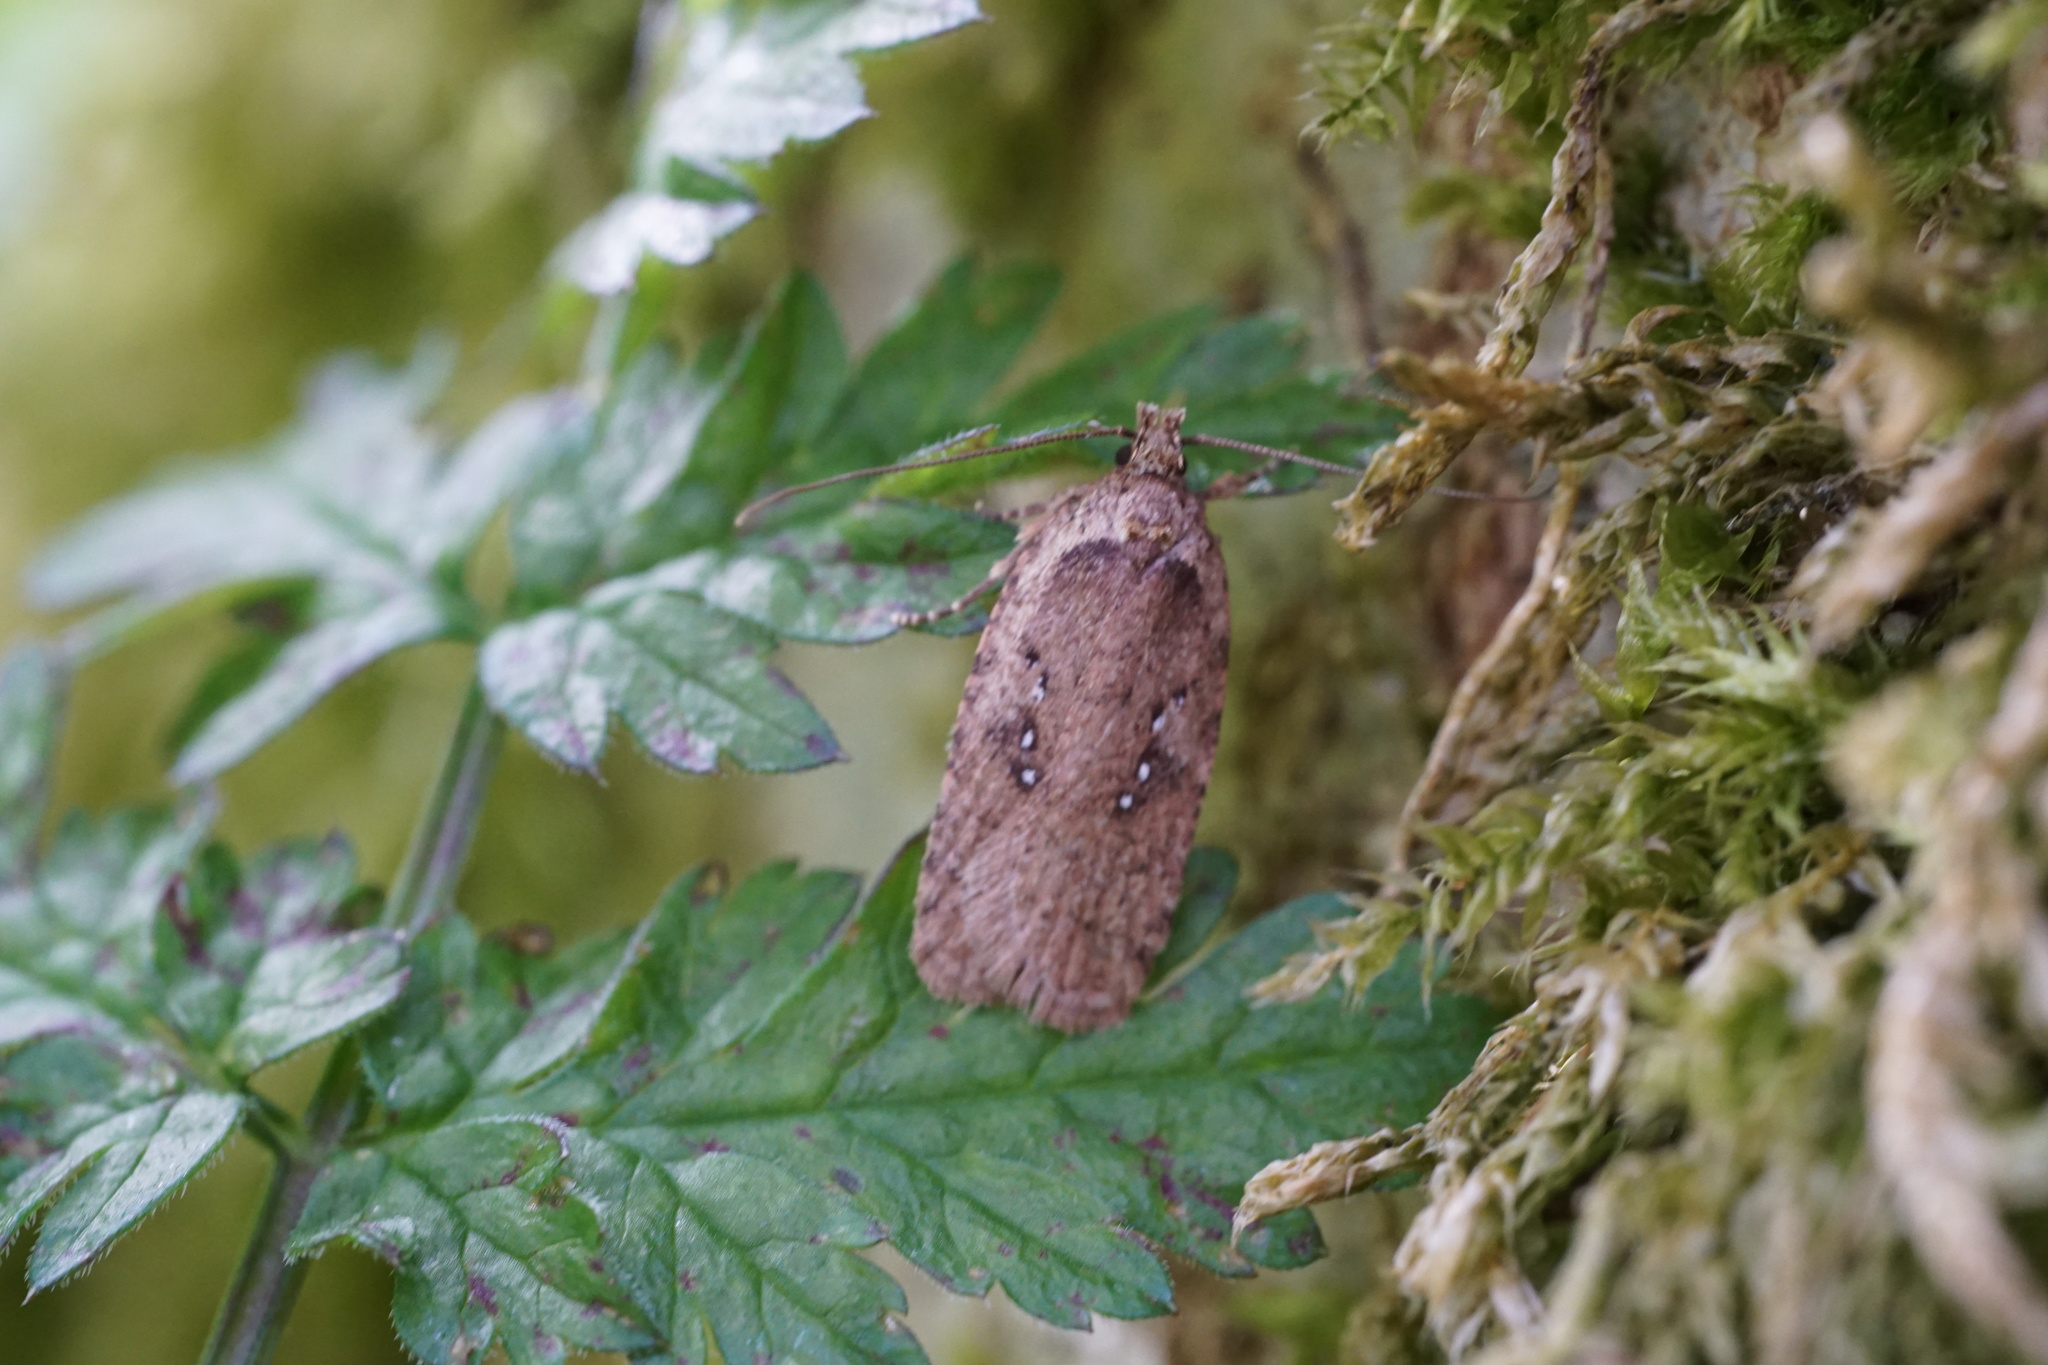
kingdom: Animalia
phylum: Arthropoda
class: Insecta
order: Lepidoptera
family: Depressariidae
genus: Agonopterix
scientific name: Agonopterix heracliana
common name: Common flat-body
